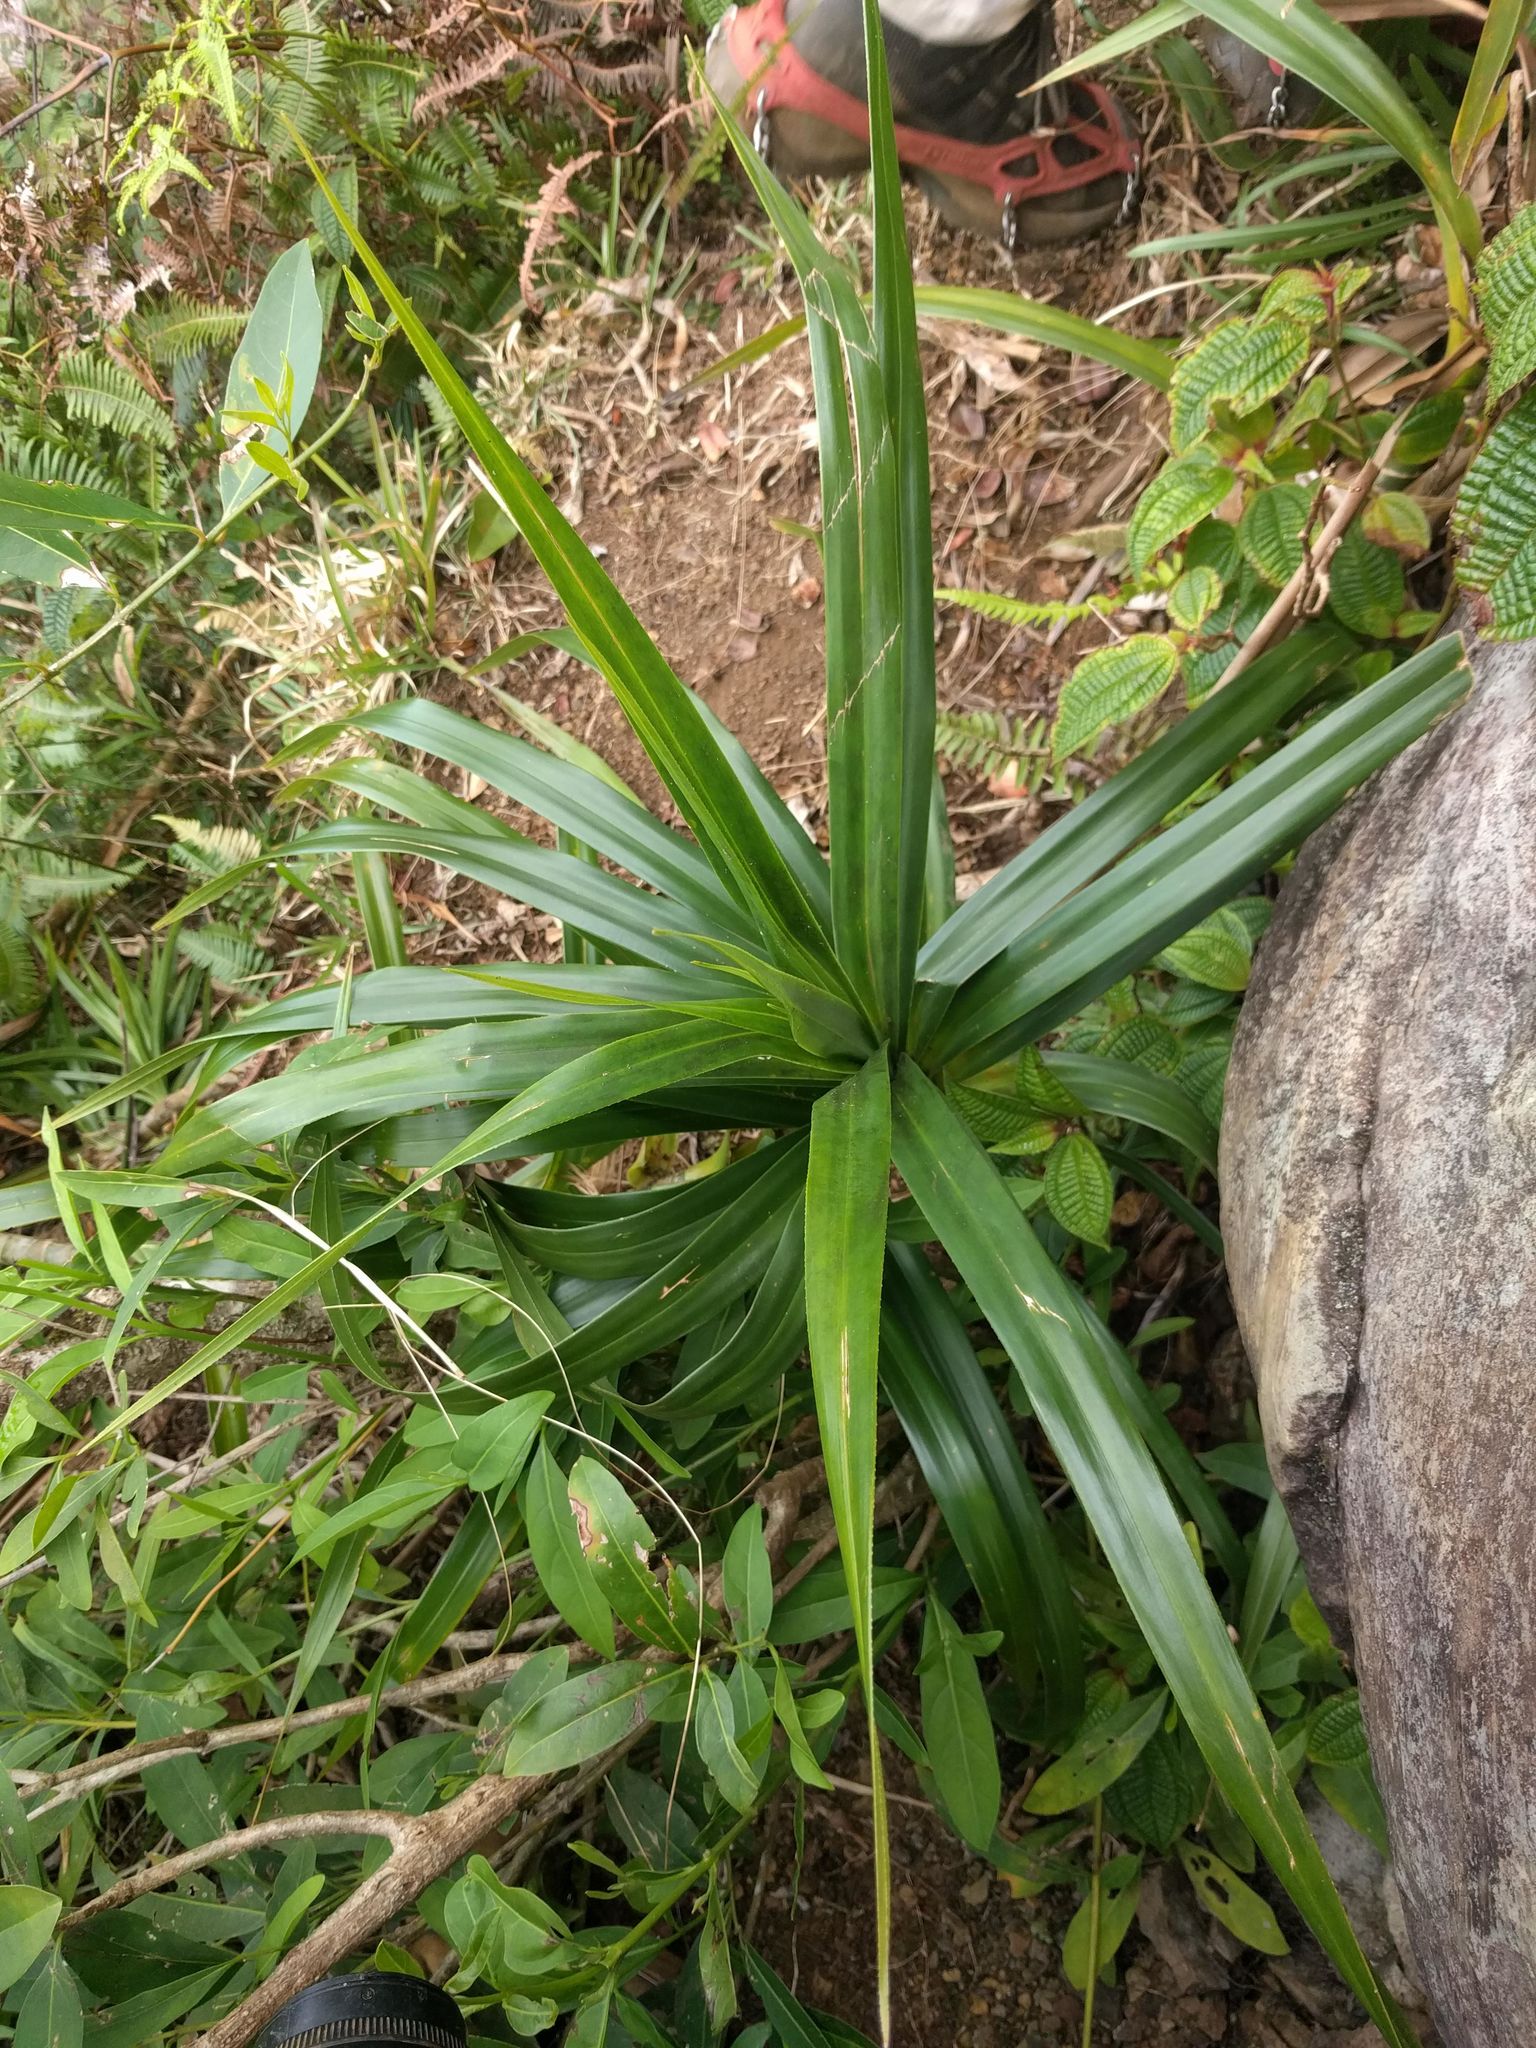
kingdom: Plantae
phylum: Tracheophyta
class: Liliopsida
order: Pandanales
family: Pandanaceae
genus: Freycinetia
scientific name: Freycinetia arborea
